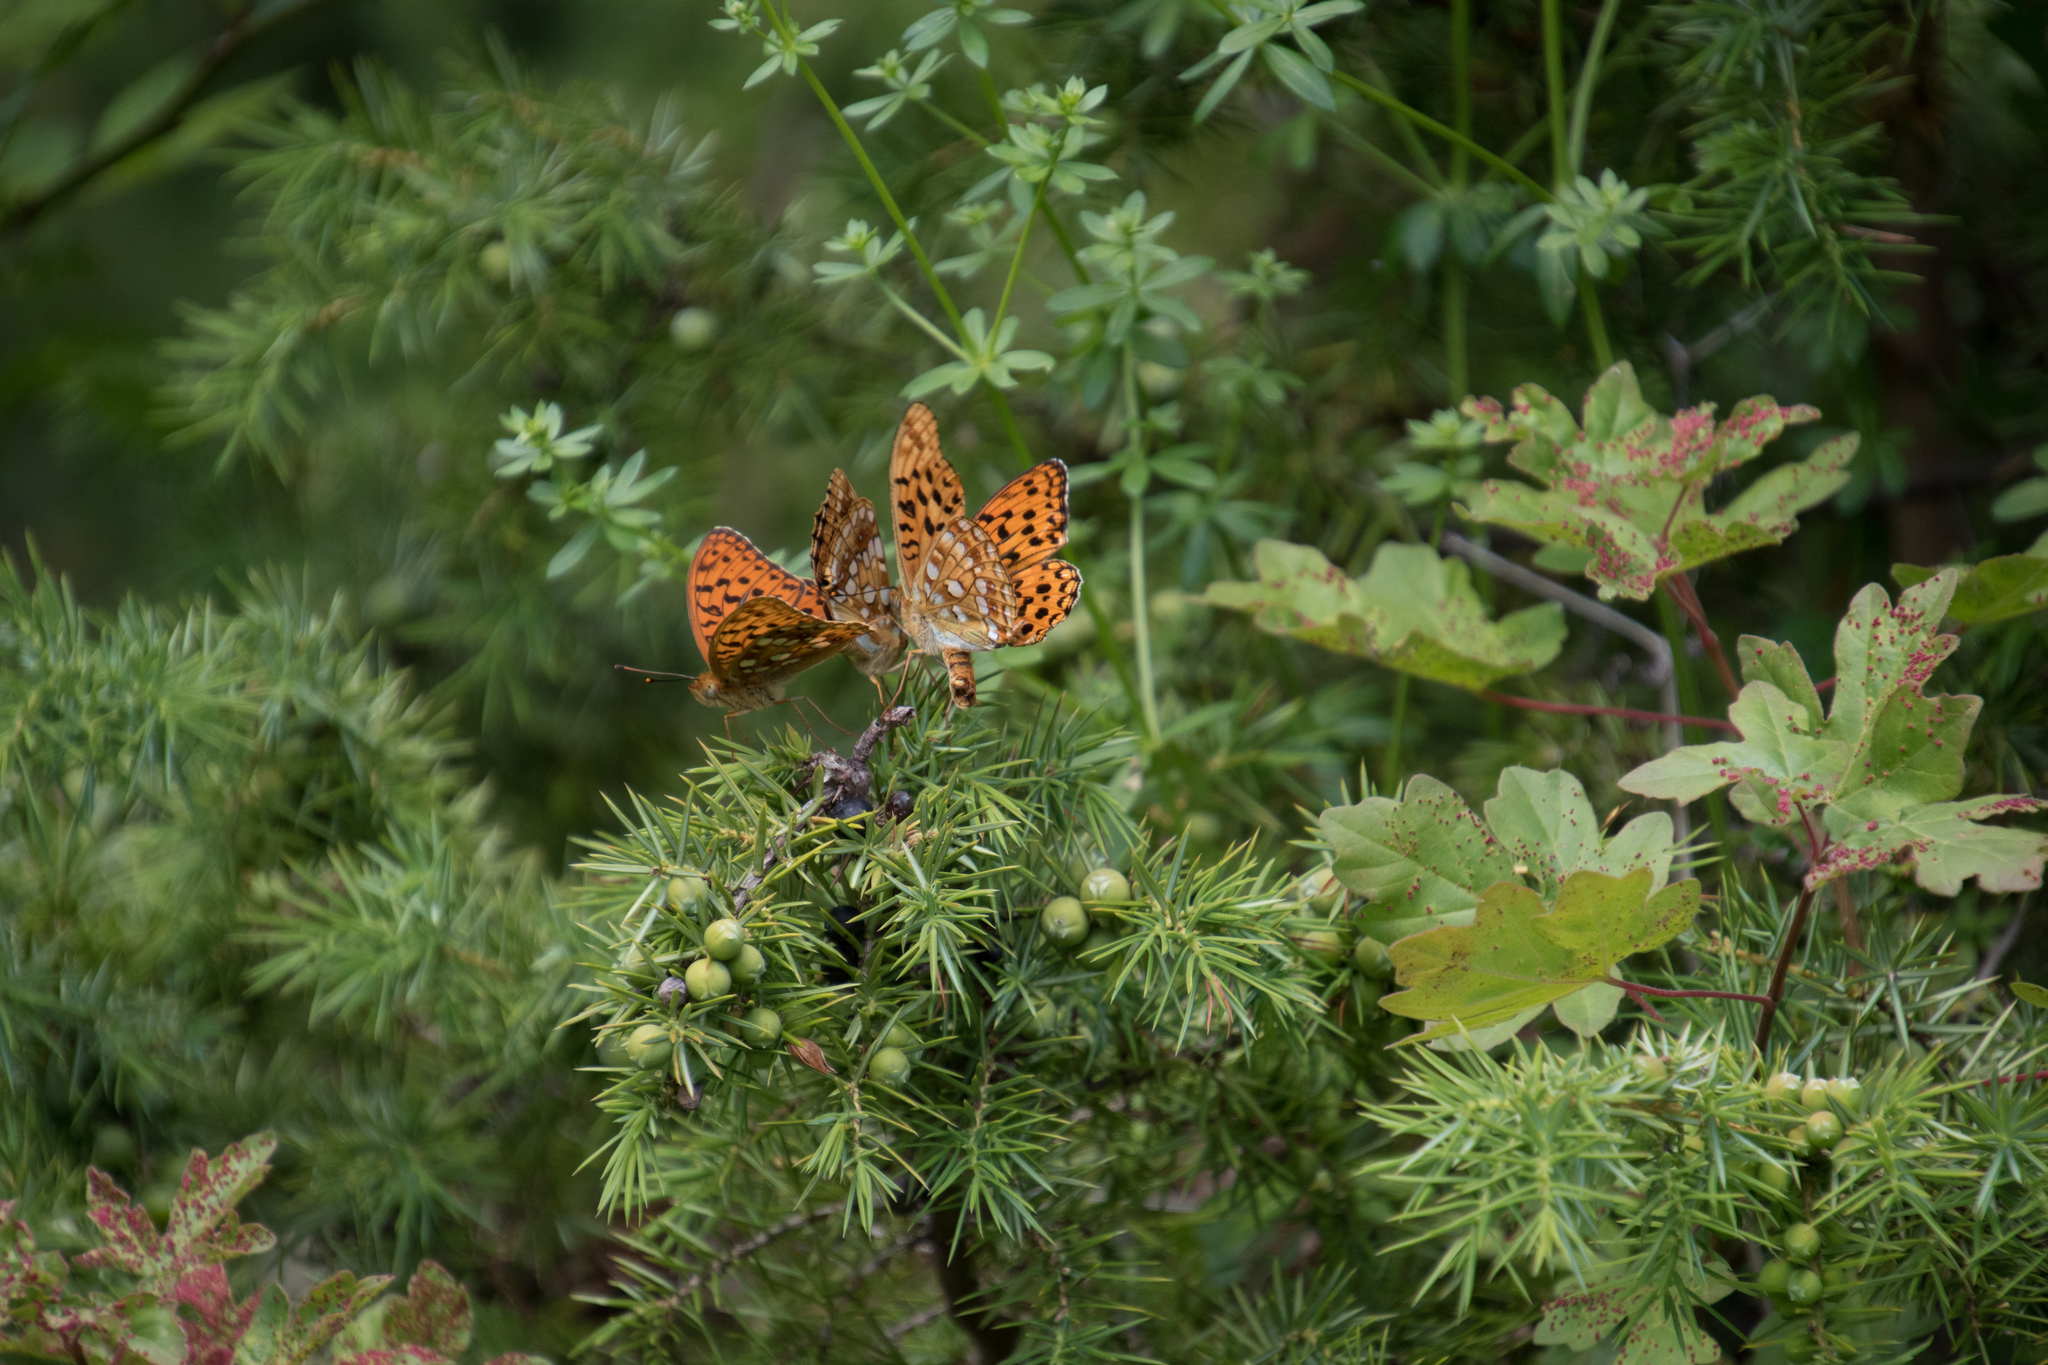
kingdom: Animalia
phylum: Arthropoda
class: Insecta
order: Lepidoptera
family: Nymphalidae
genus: Fabriciana
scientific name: Fabriciana adippe
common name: High brown fritillary
